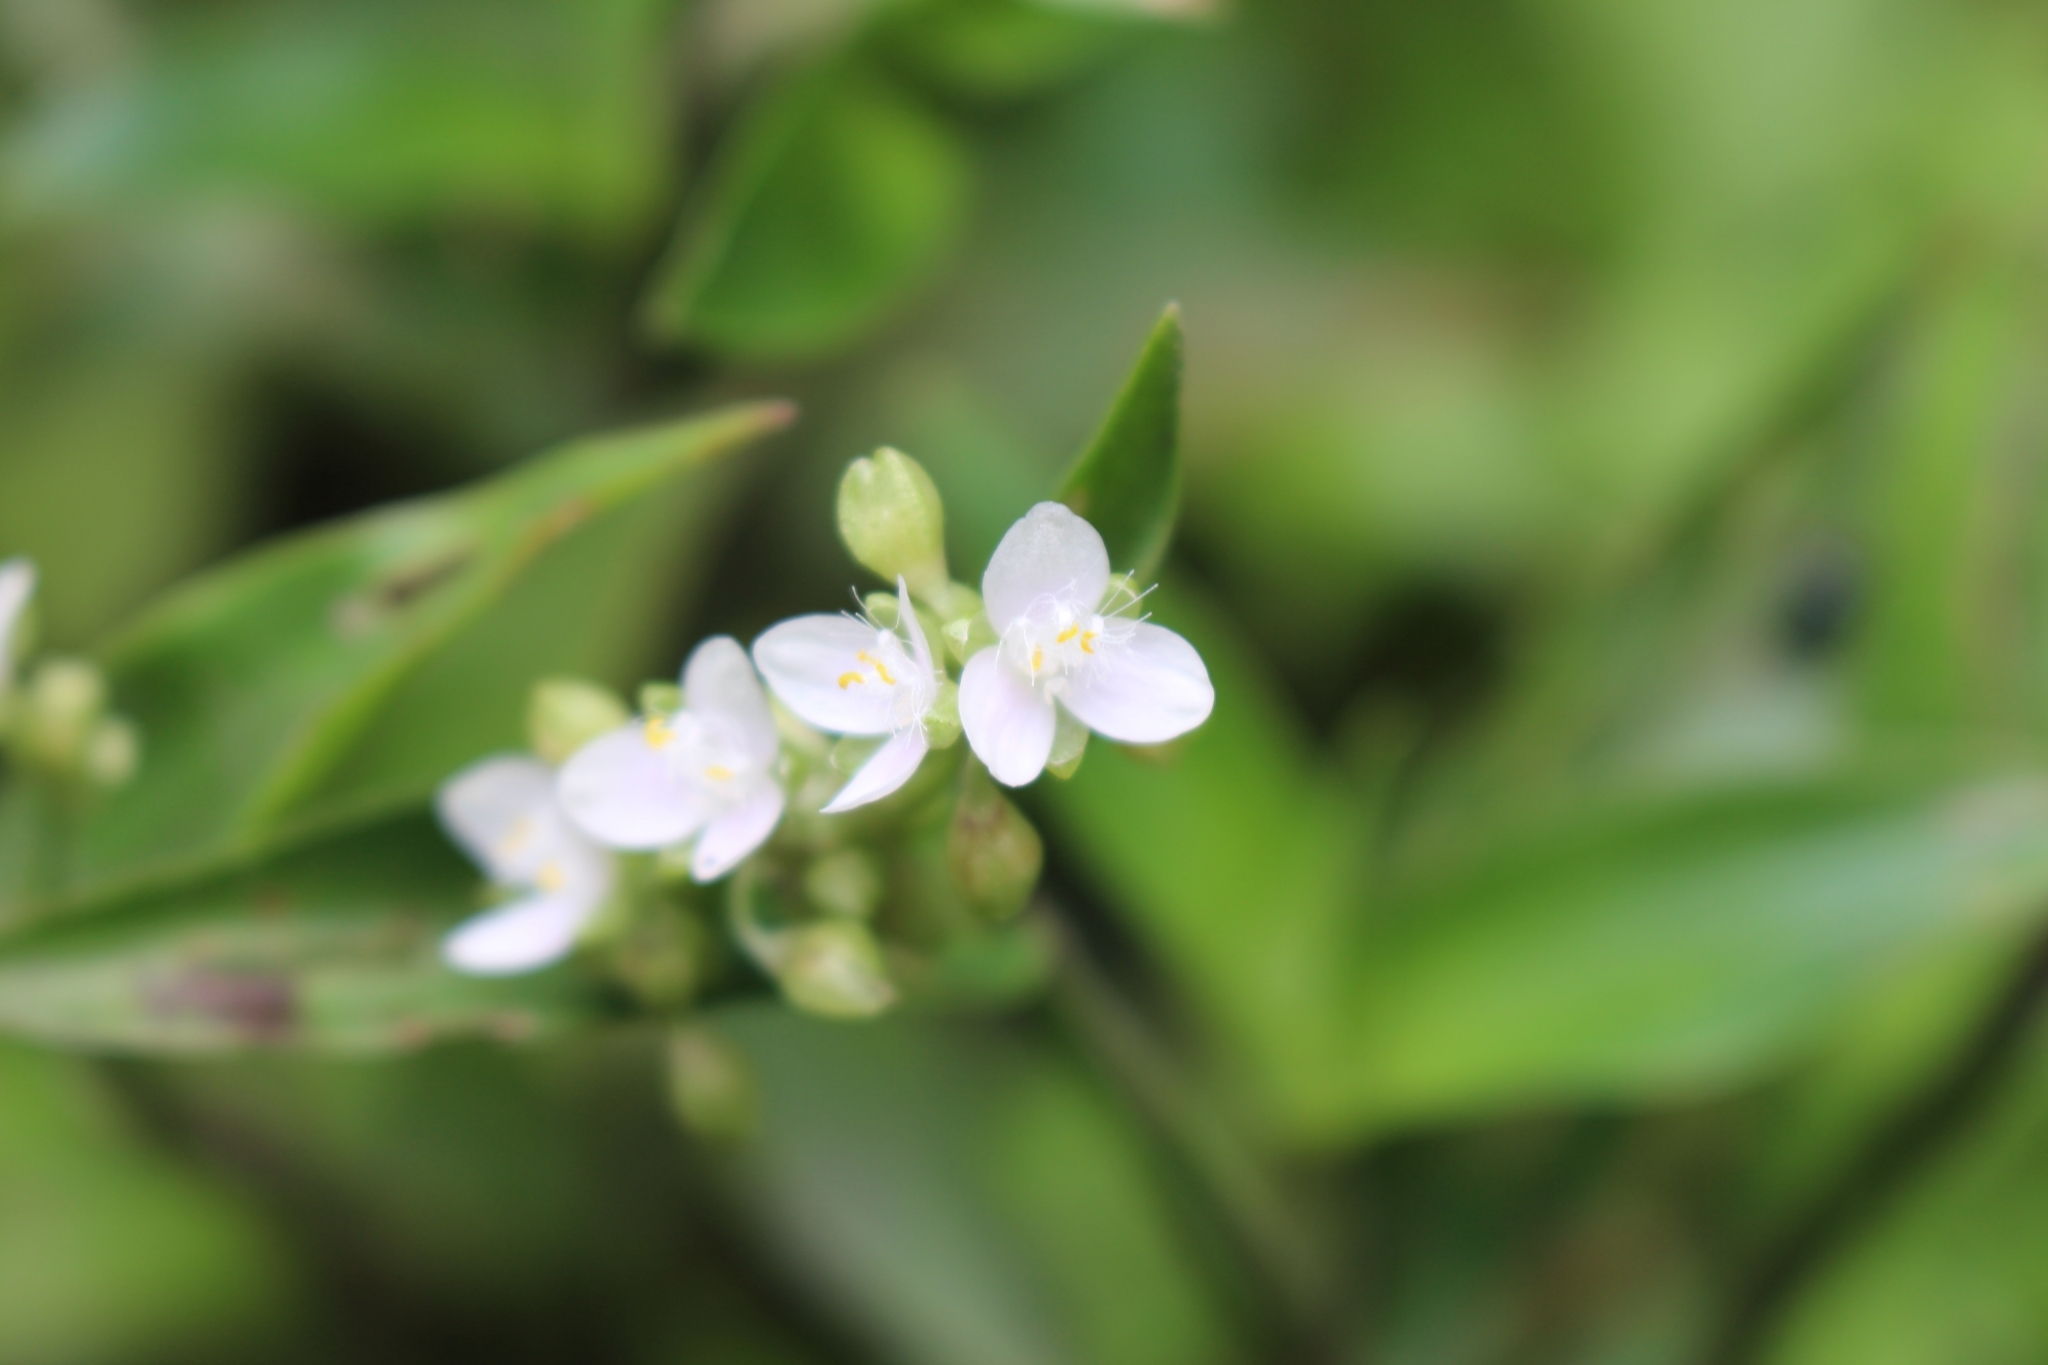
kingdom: Plantae
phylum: Tracheophyta
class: Liliopsida
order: Commelinales
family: Commelinaceae
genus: Callisia
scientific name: Callisia serrulata
